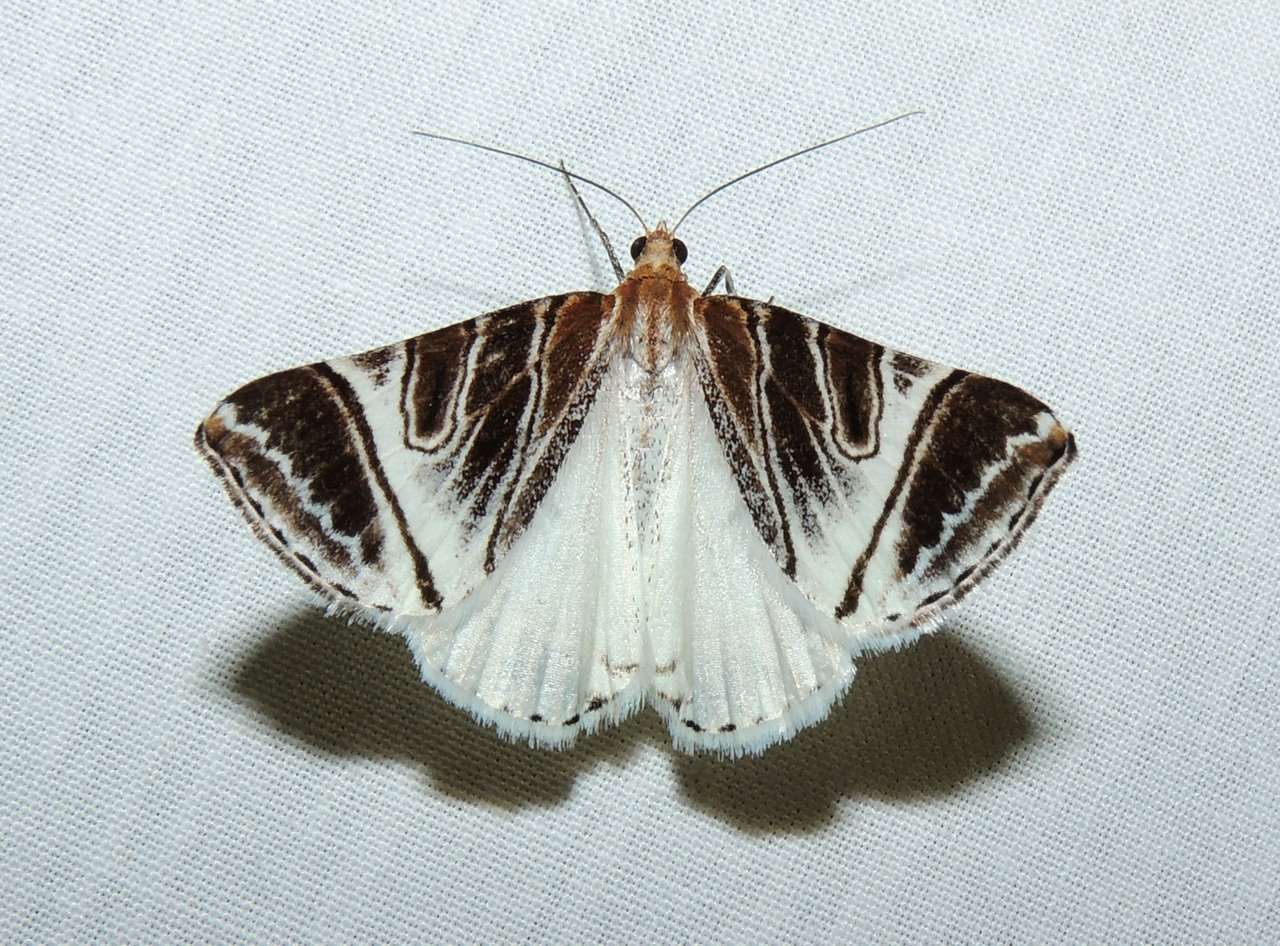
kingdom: Animalia
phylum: Arthropoda
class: Insecta
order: Lepidoptera
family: Geometridae
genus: Phrataria
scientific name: Phrataria replicataria
